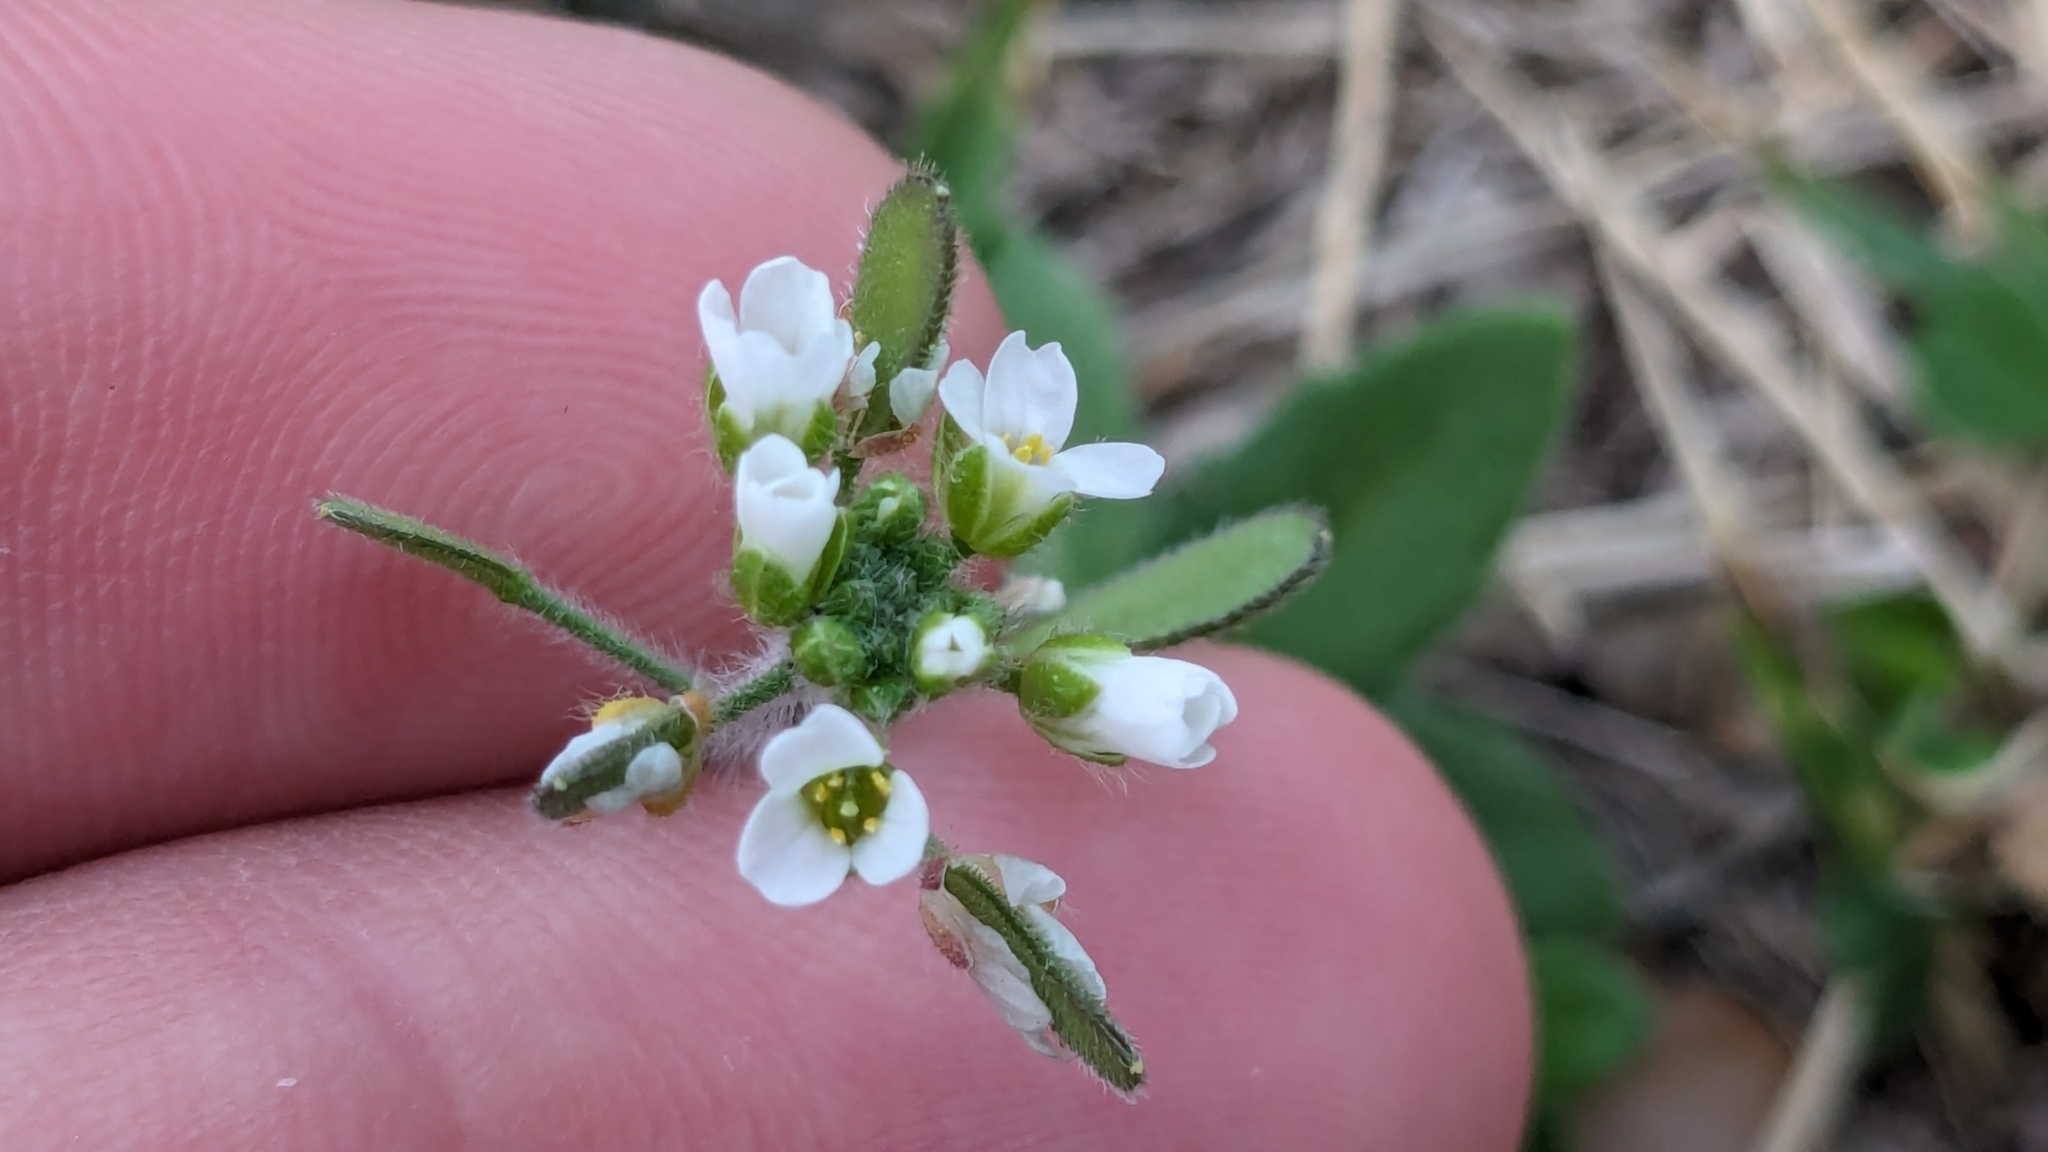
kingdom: Plantae
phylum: Tracheophyta
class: Magnoliopsida
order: Brassicales
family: Brassicaceae
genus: Tomostima
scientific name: Tomostima platycarpa
